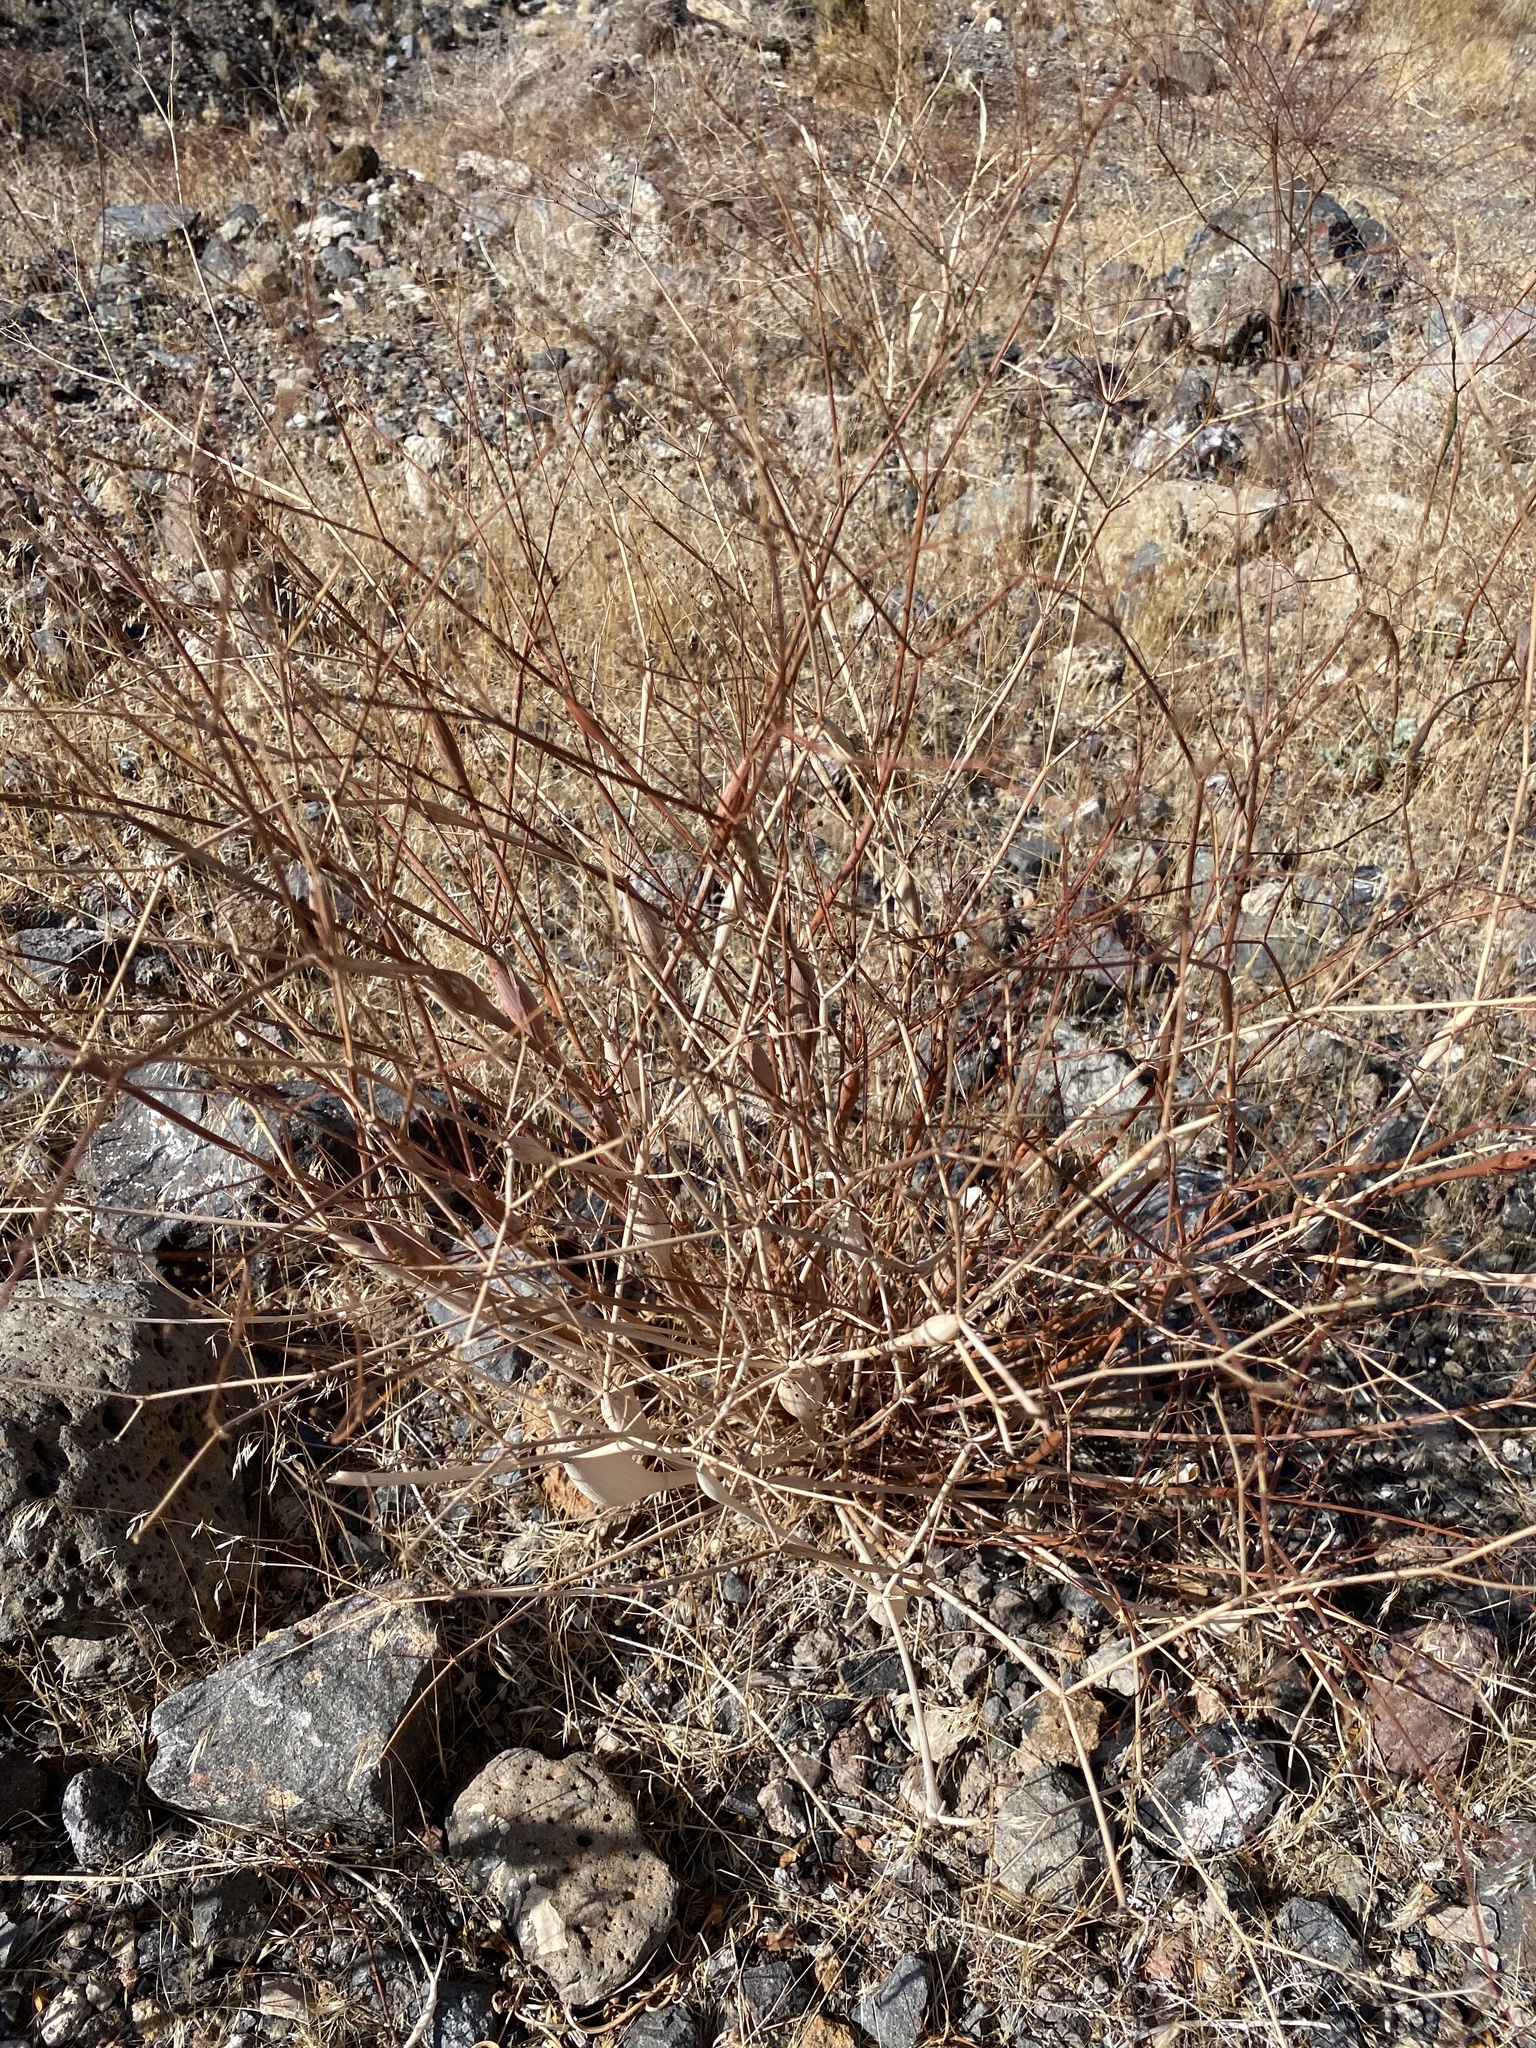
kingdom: Plantae
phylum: Tracheophyta
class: Magnoliopsida
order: Caryophyllales
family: Polygonaceae
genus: Eriogonum
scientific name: Eriogonum inflatum
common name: Desert trumpet
